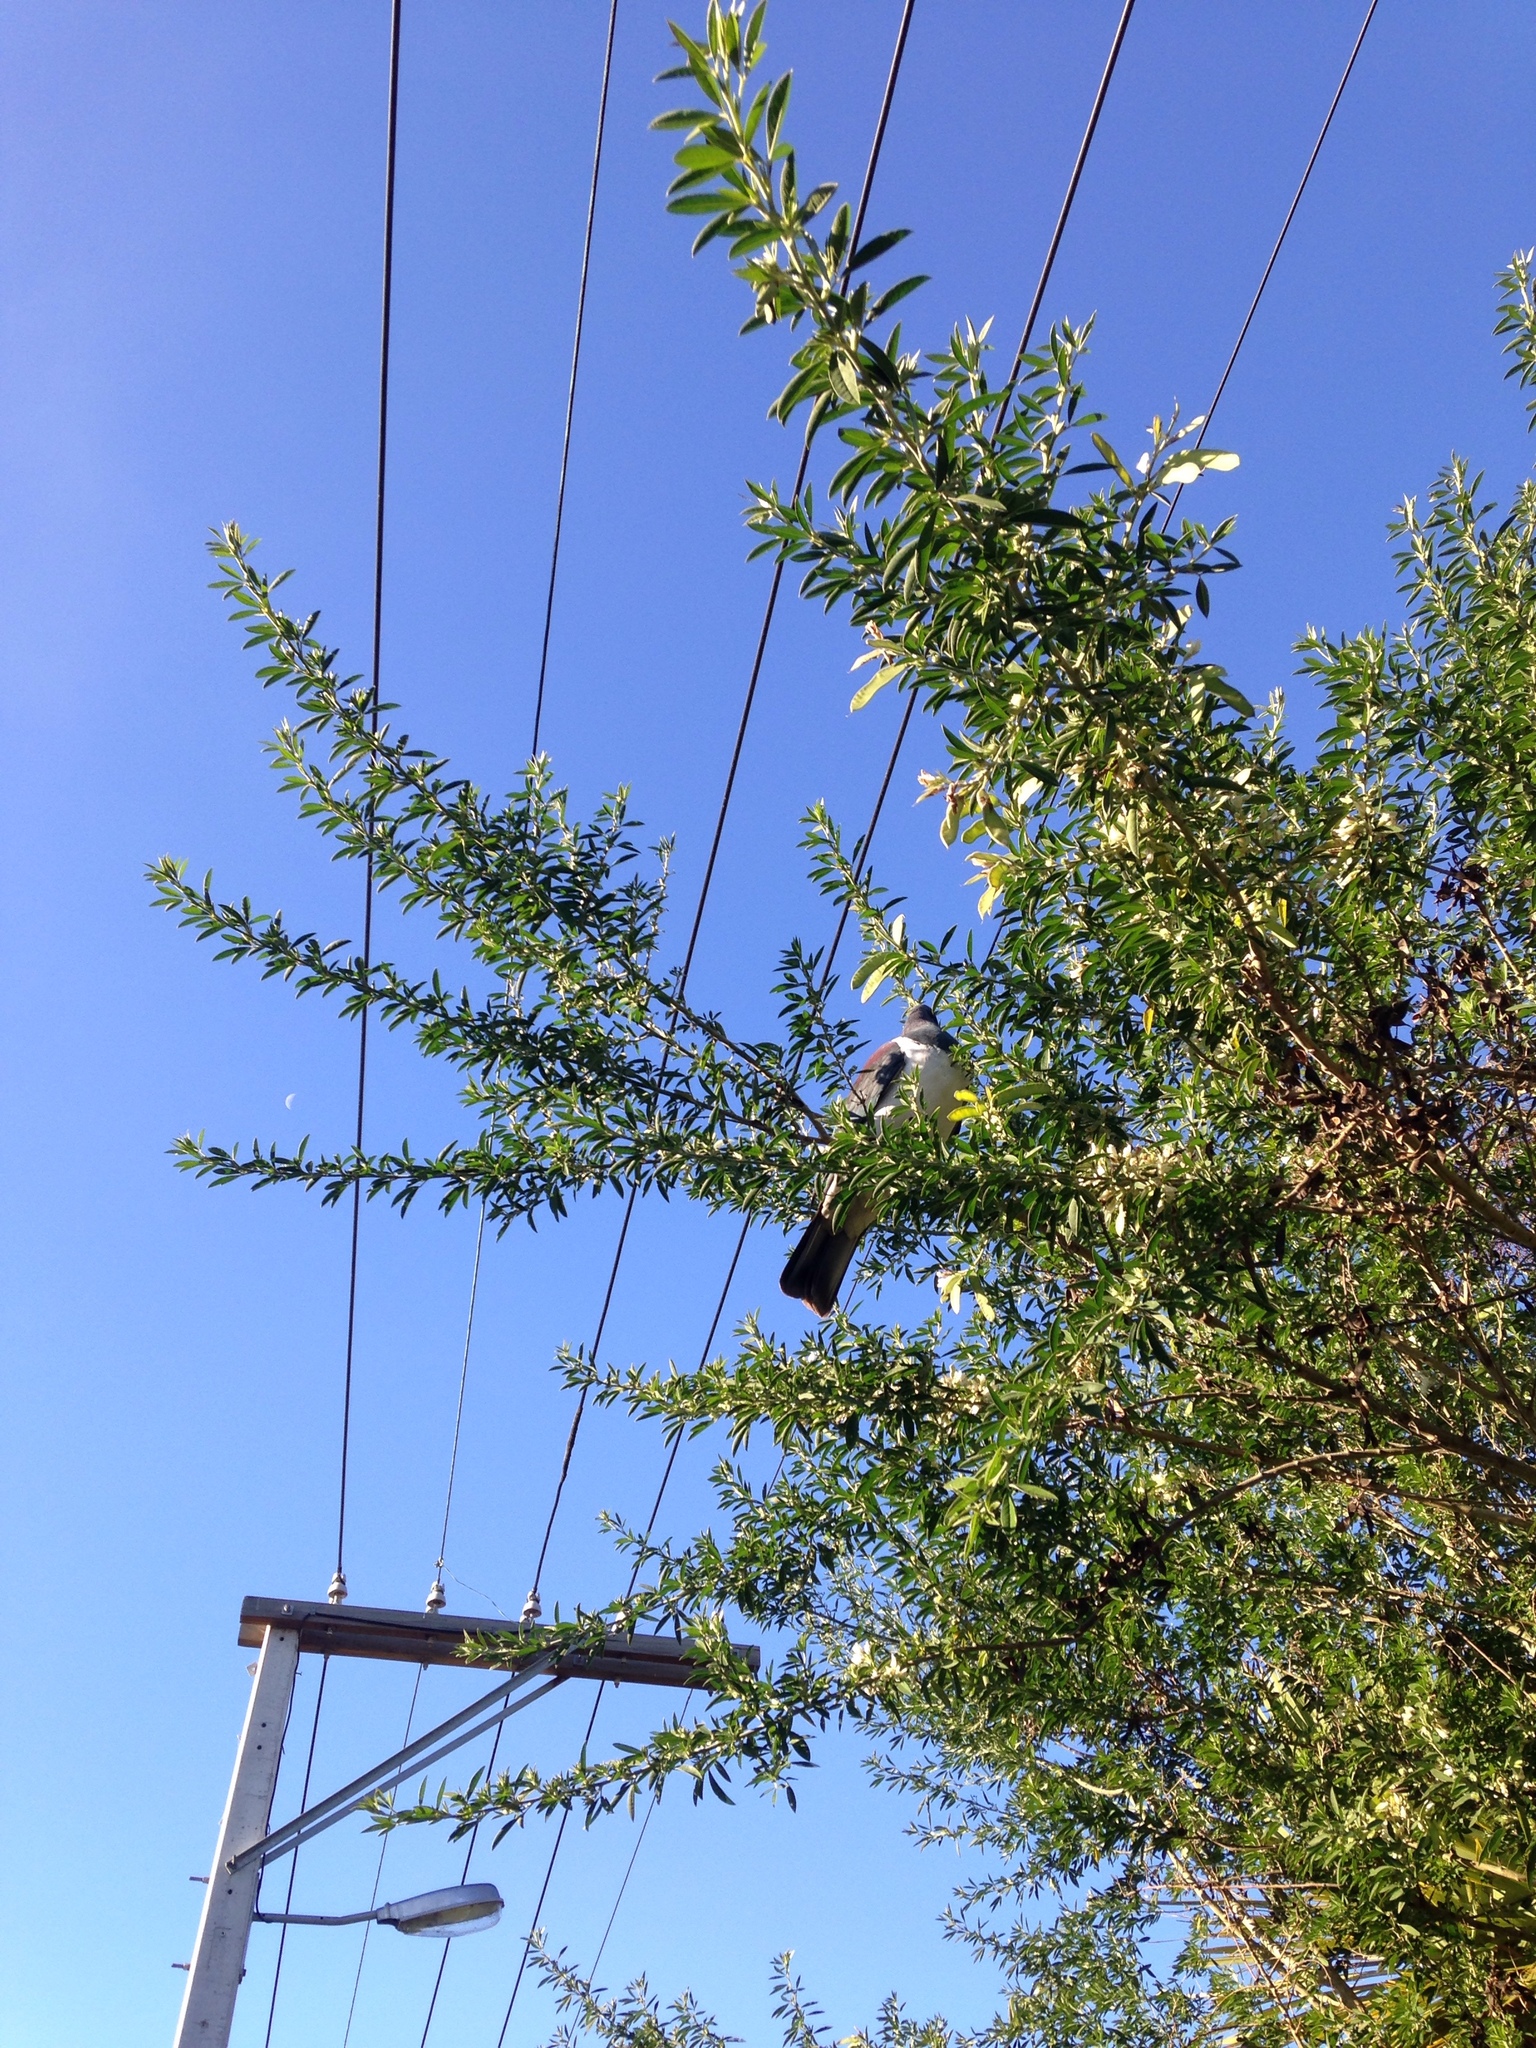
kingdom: Animalia
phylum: Chordata
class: Aves
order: Columbiformes
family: Columbidae
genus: Hemiphaga
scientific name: Hemiphaga novaeseelandiae
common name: New zealand pigeon
